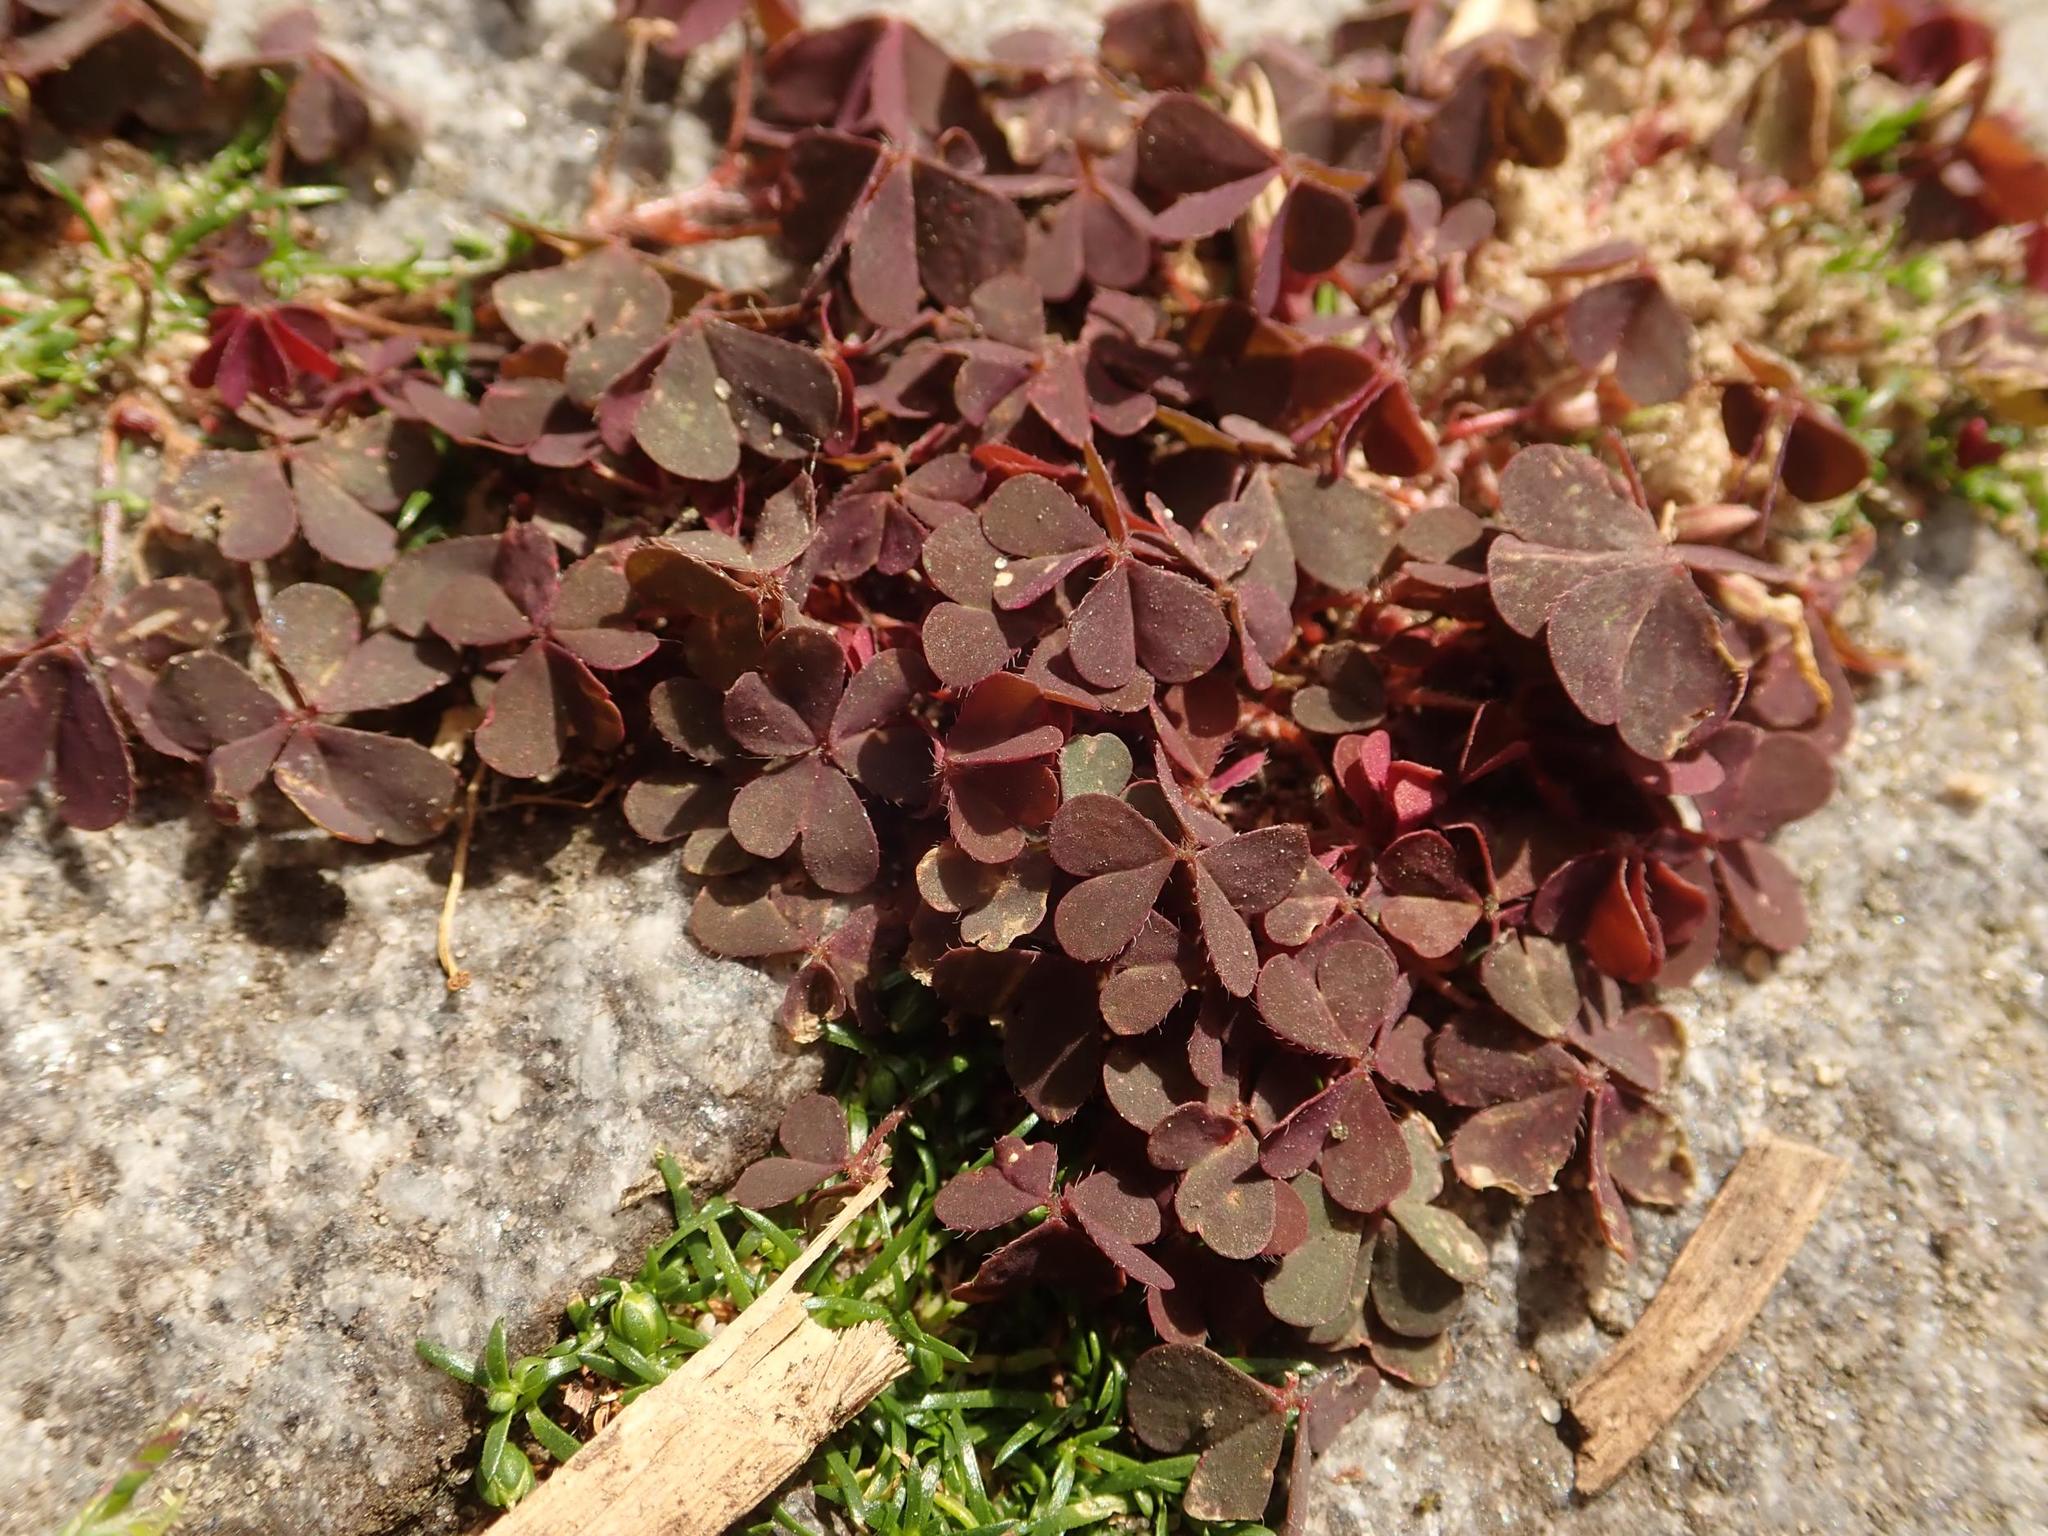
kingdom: Plantae
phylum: Tracheophyta
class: Magnoliopsida
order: Oxalidales
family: Oxalidaceae
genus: Oxalis
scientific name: Oxalis corniculata
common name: Procumbent yellow-sorrel
